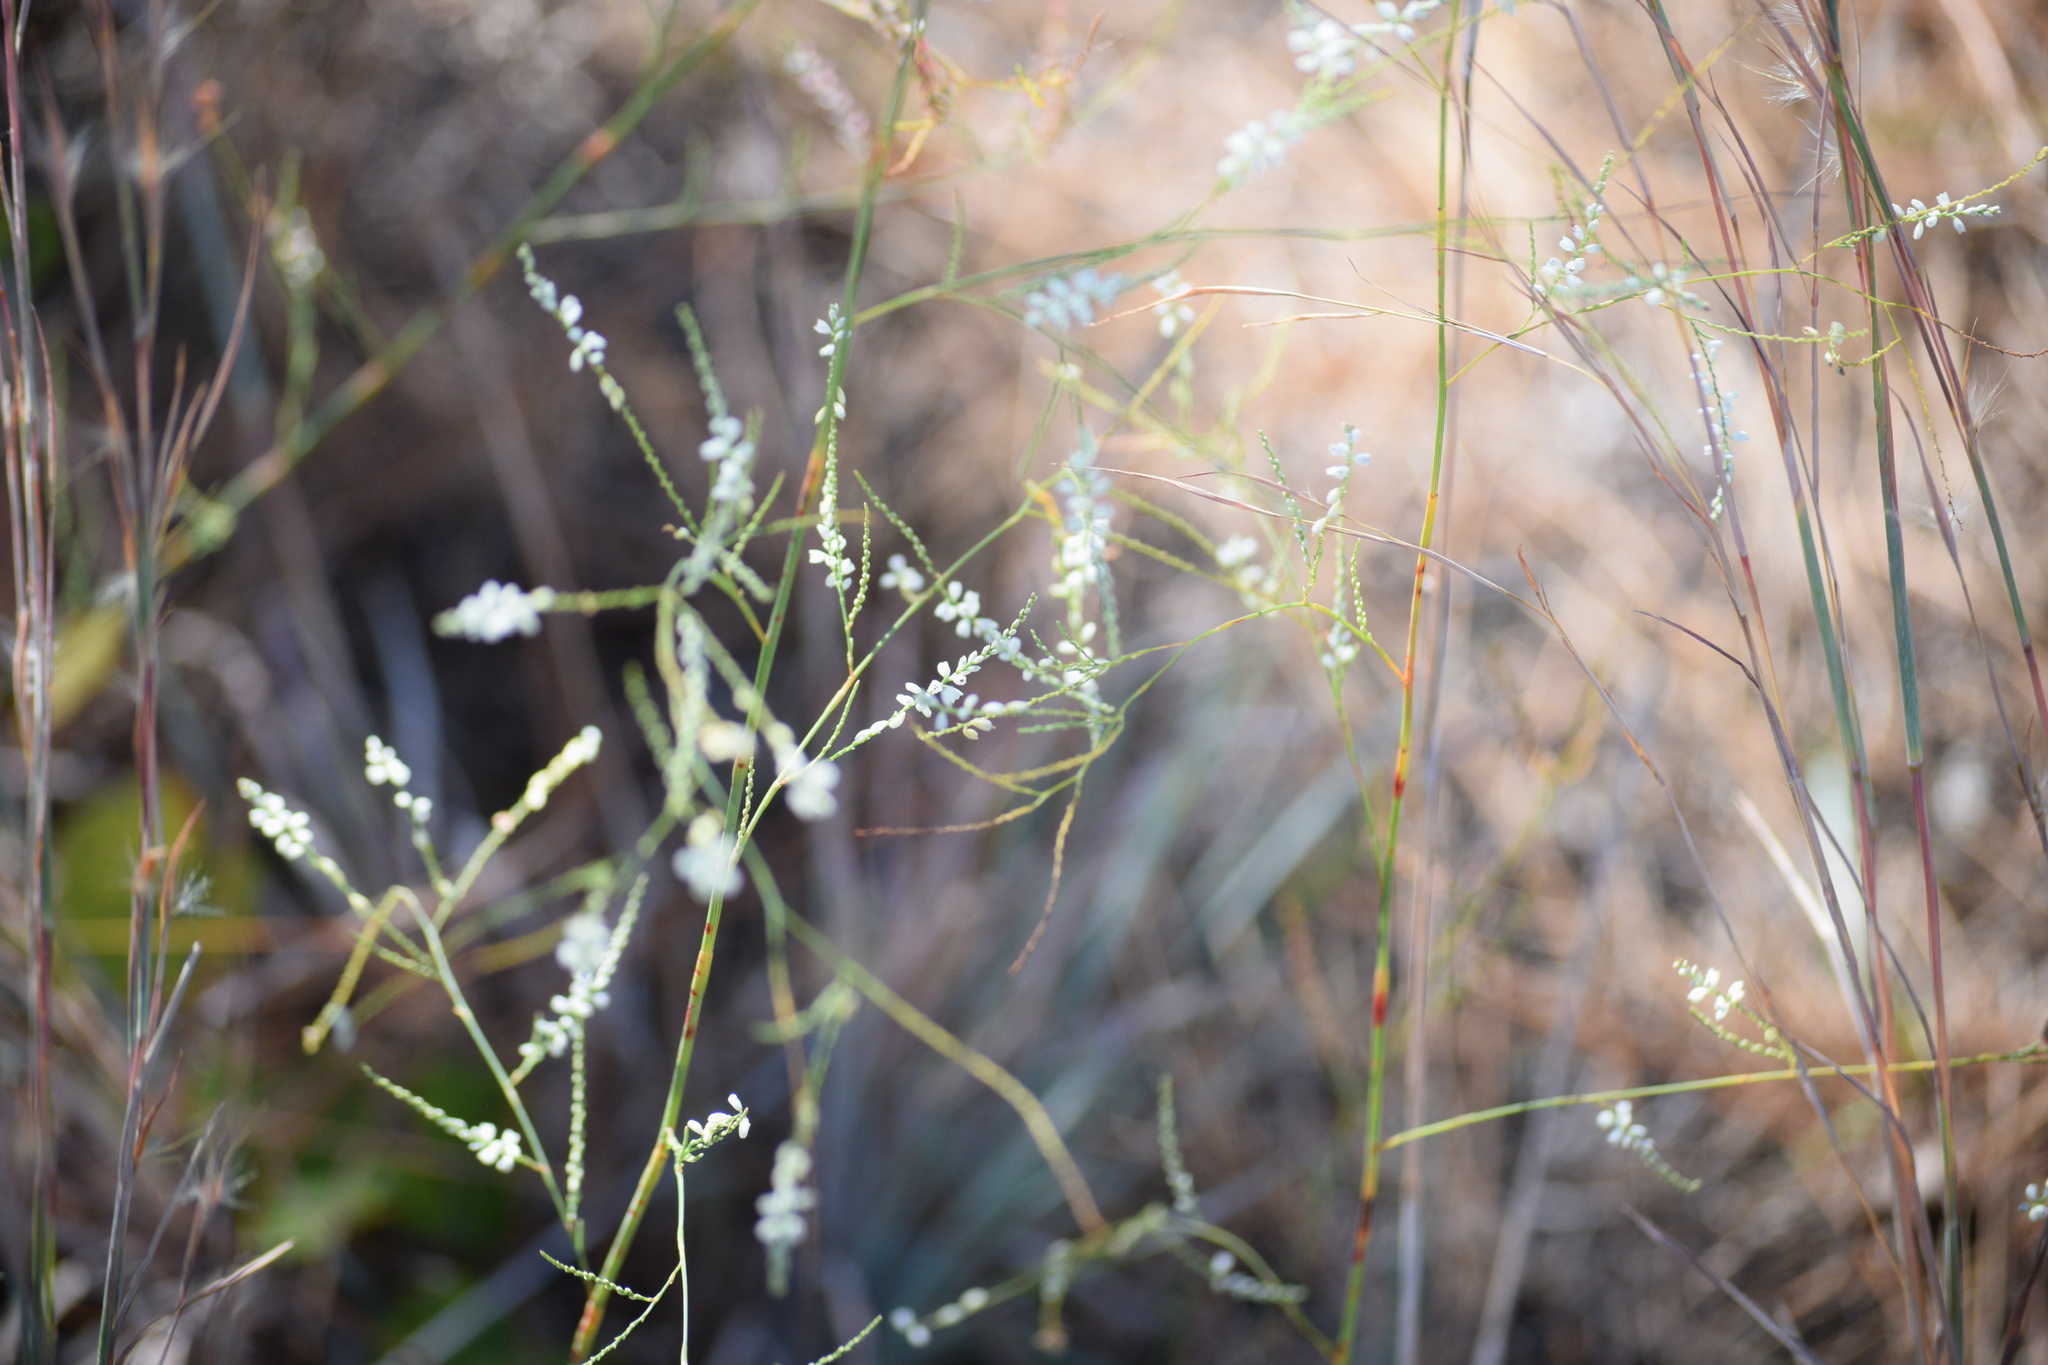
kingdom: Plantae
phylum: Tracheophyta
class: Magnoliopsida
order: Caryophyllales
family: Polygonaceae
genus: Polygonella
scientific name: Polygonella gracilis
